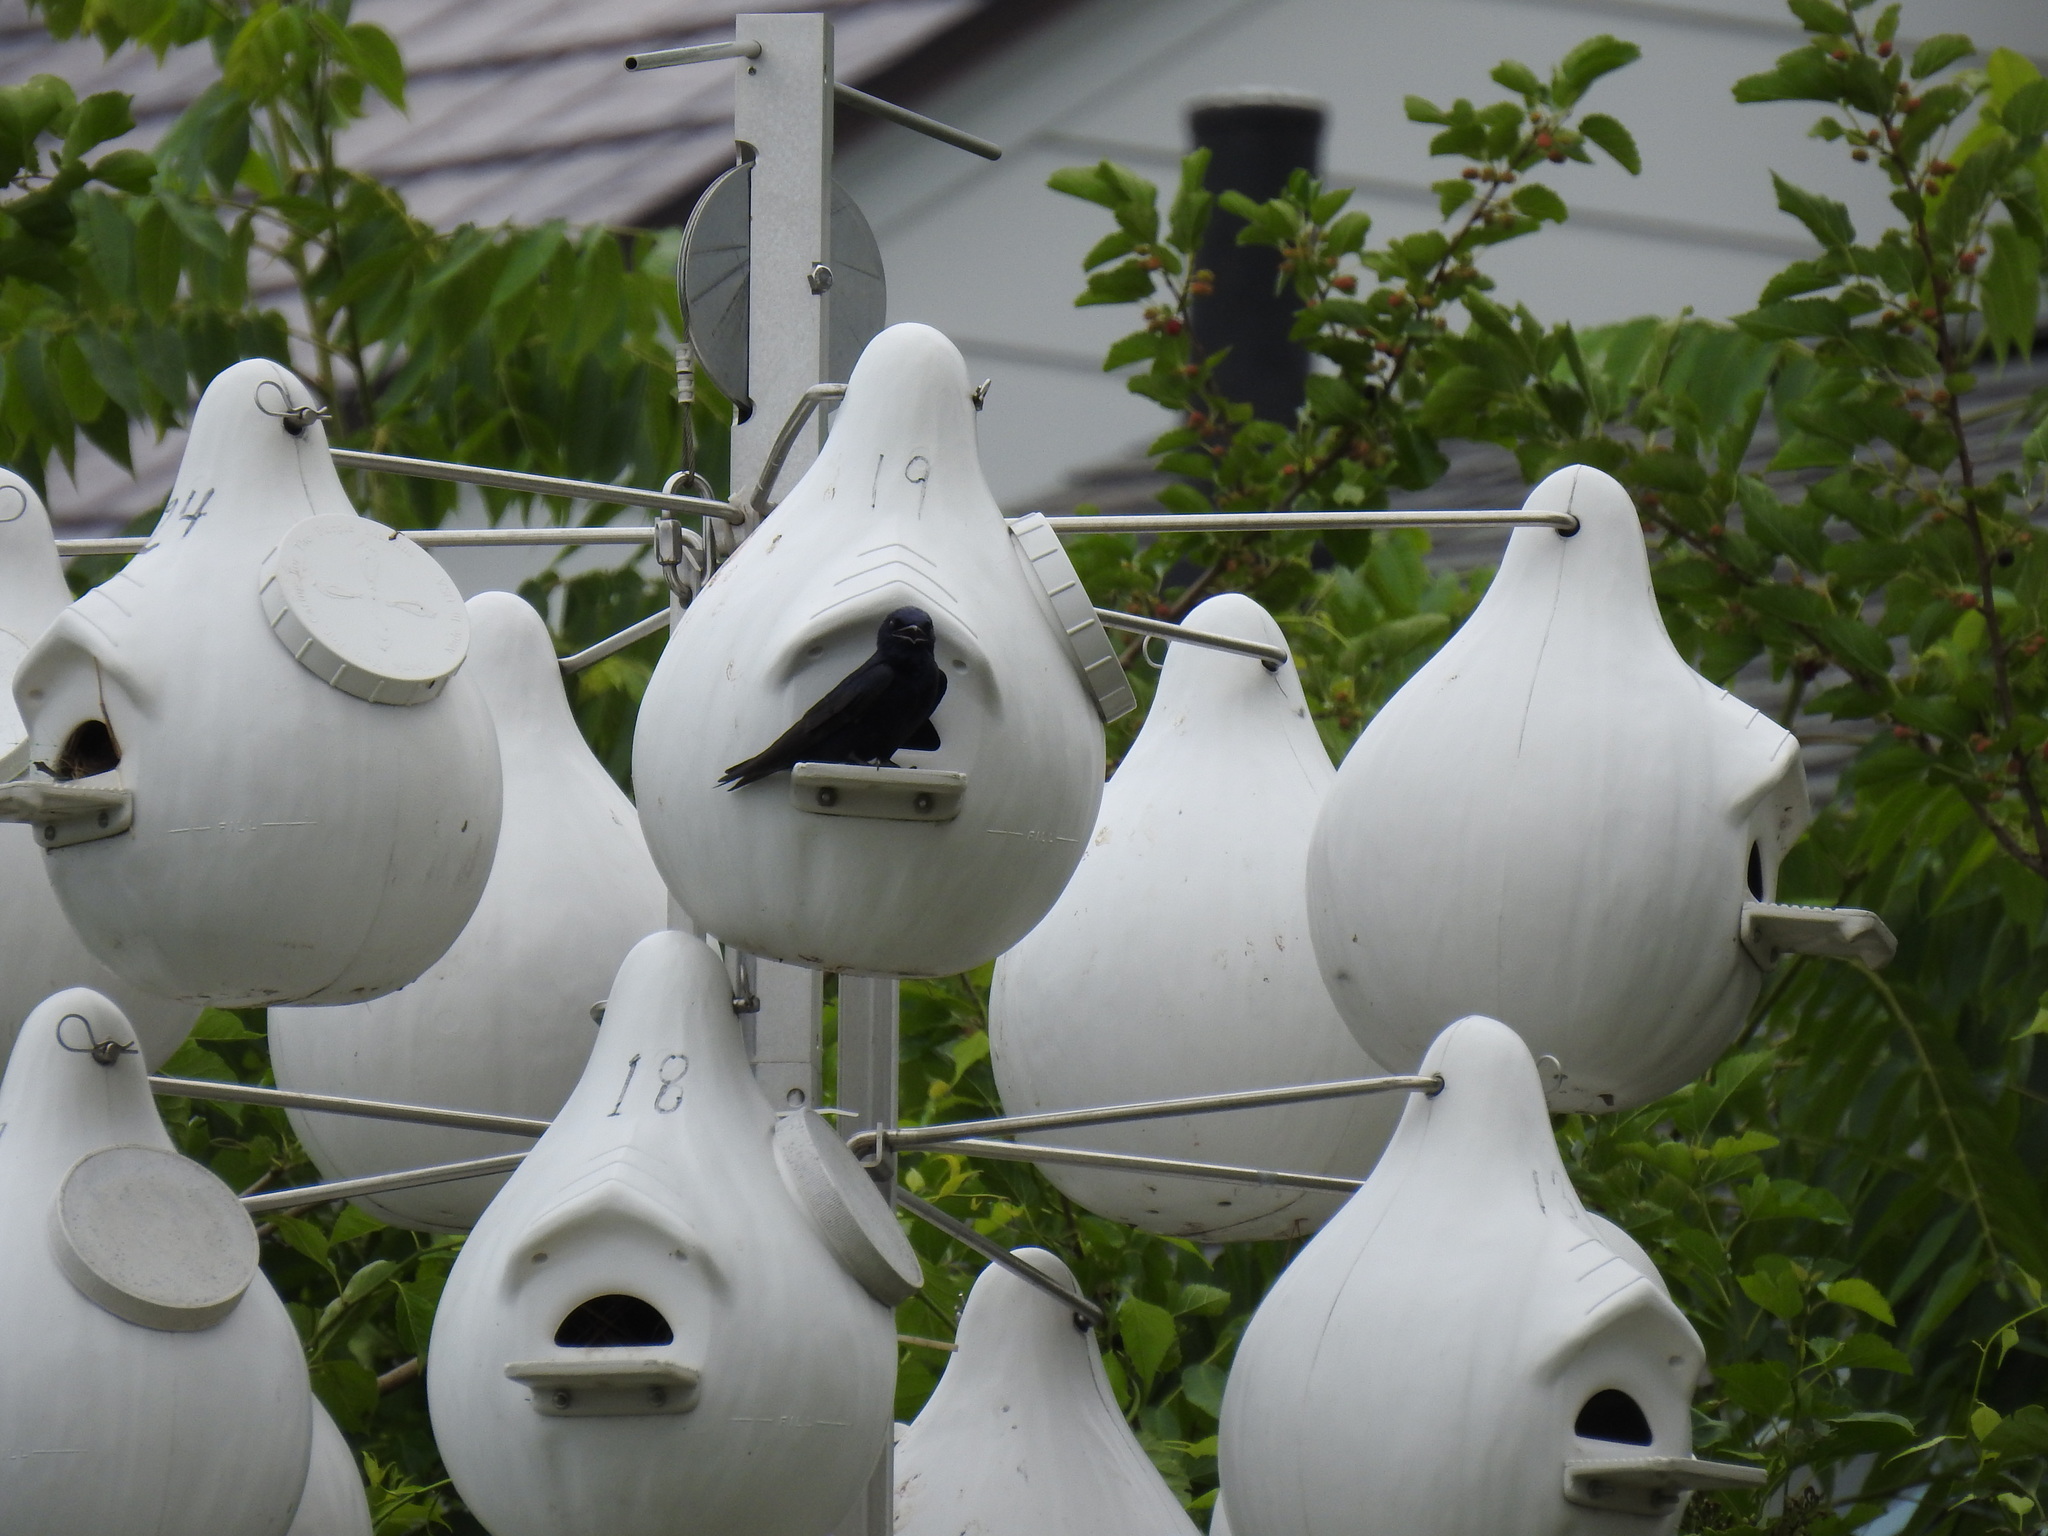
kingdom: Animalia
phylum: Chordata
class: Aves
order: Passeriformes
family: Hirundinidae
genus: Progne
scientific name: Progne subis
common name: Purple martin
